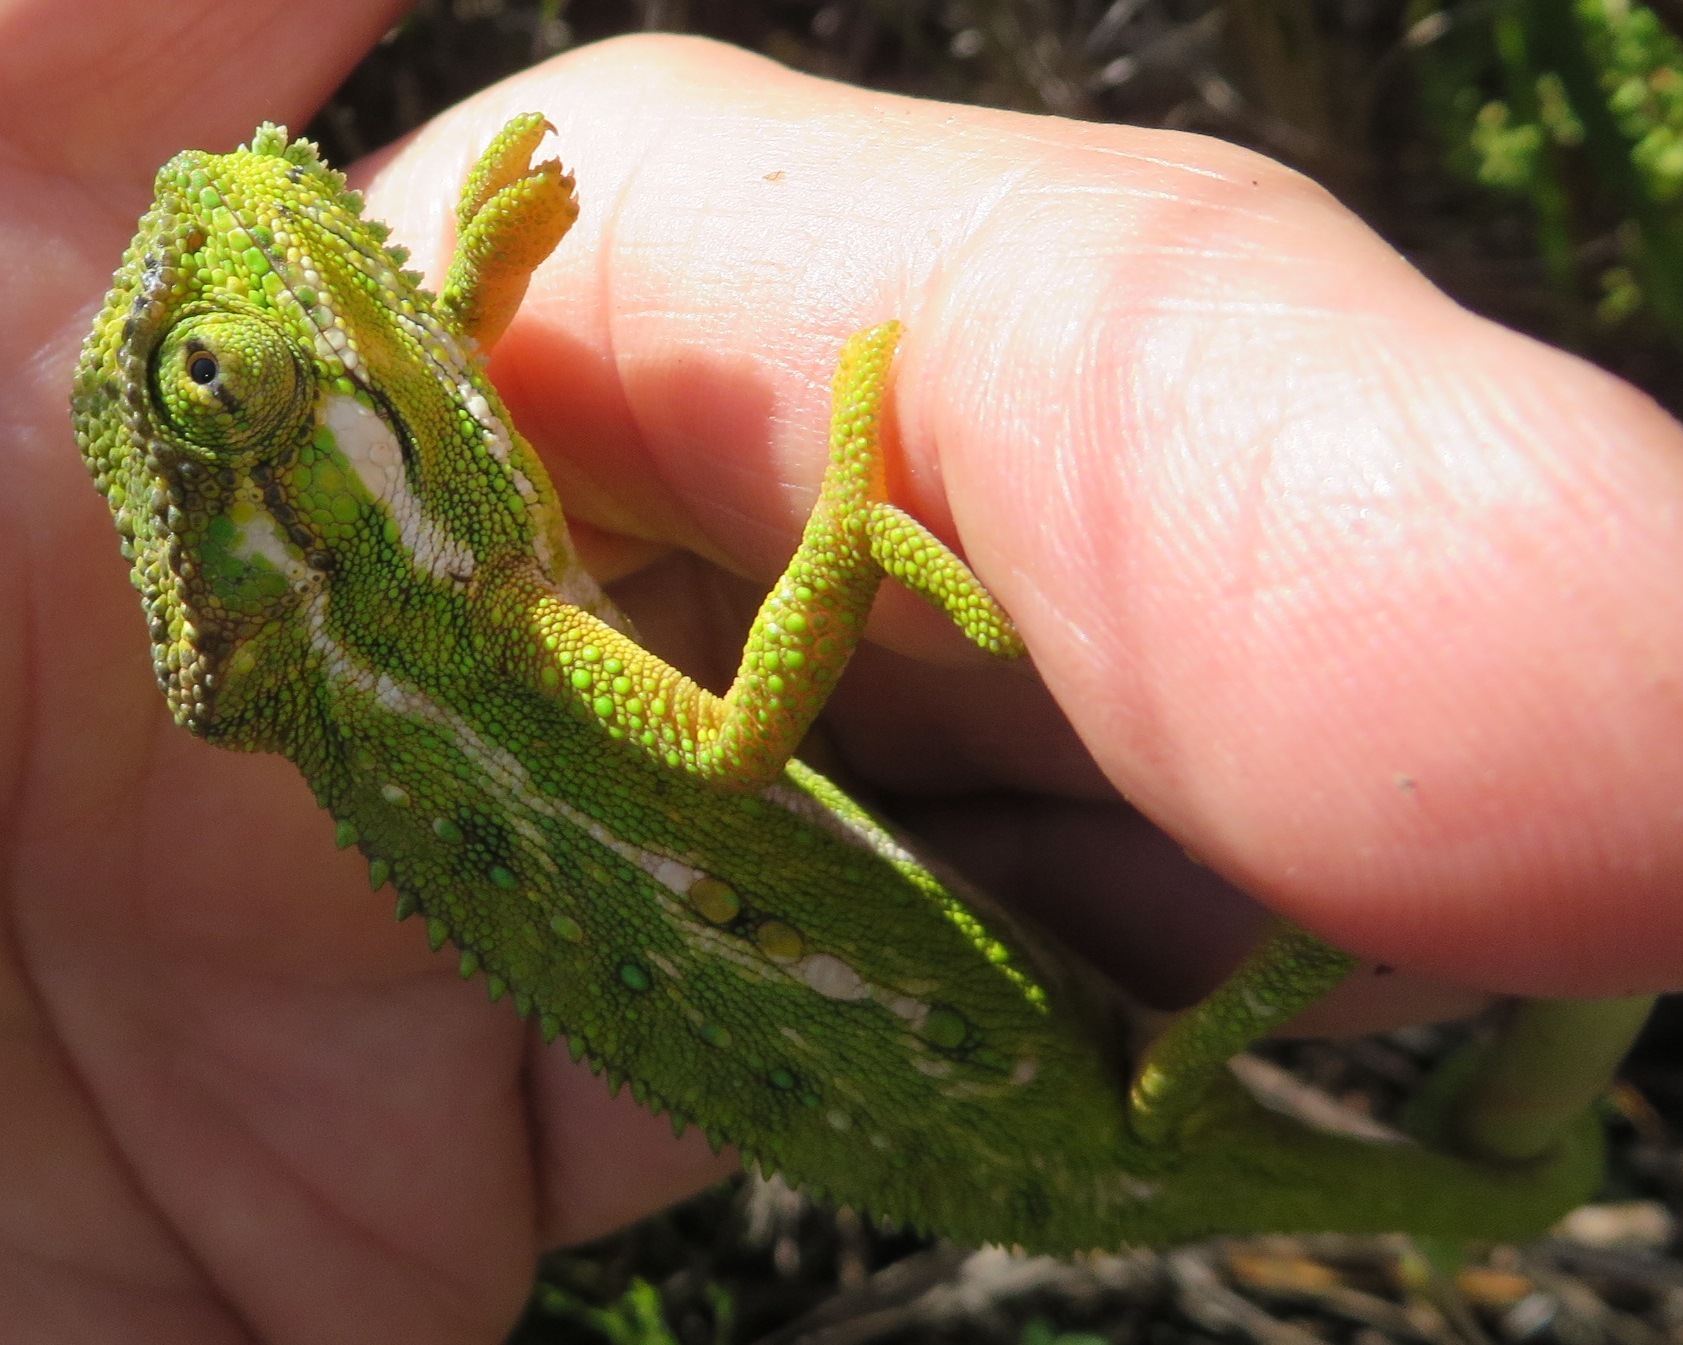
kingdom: Animalia
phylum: Chordata
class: Squamata
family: Chamaeleonidae
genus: Bradypodion
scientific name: Bradypodion pumilum
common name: Cape dwarf chameleon
